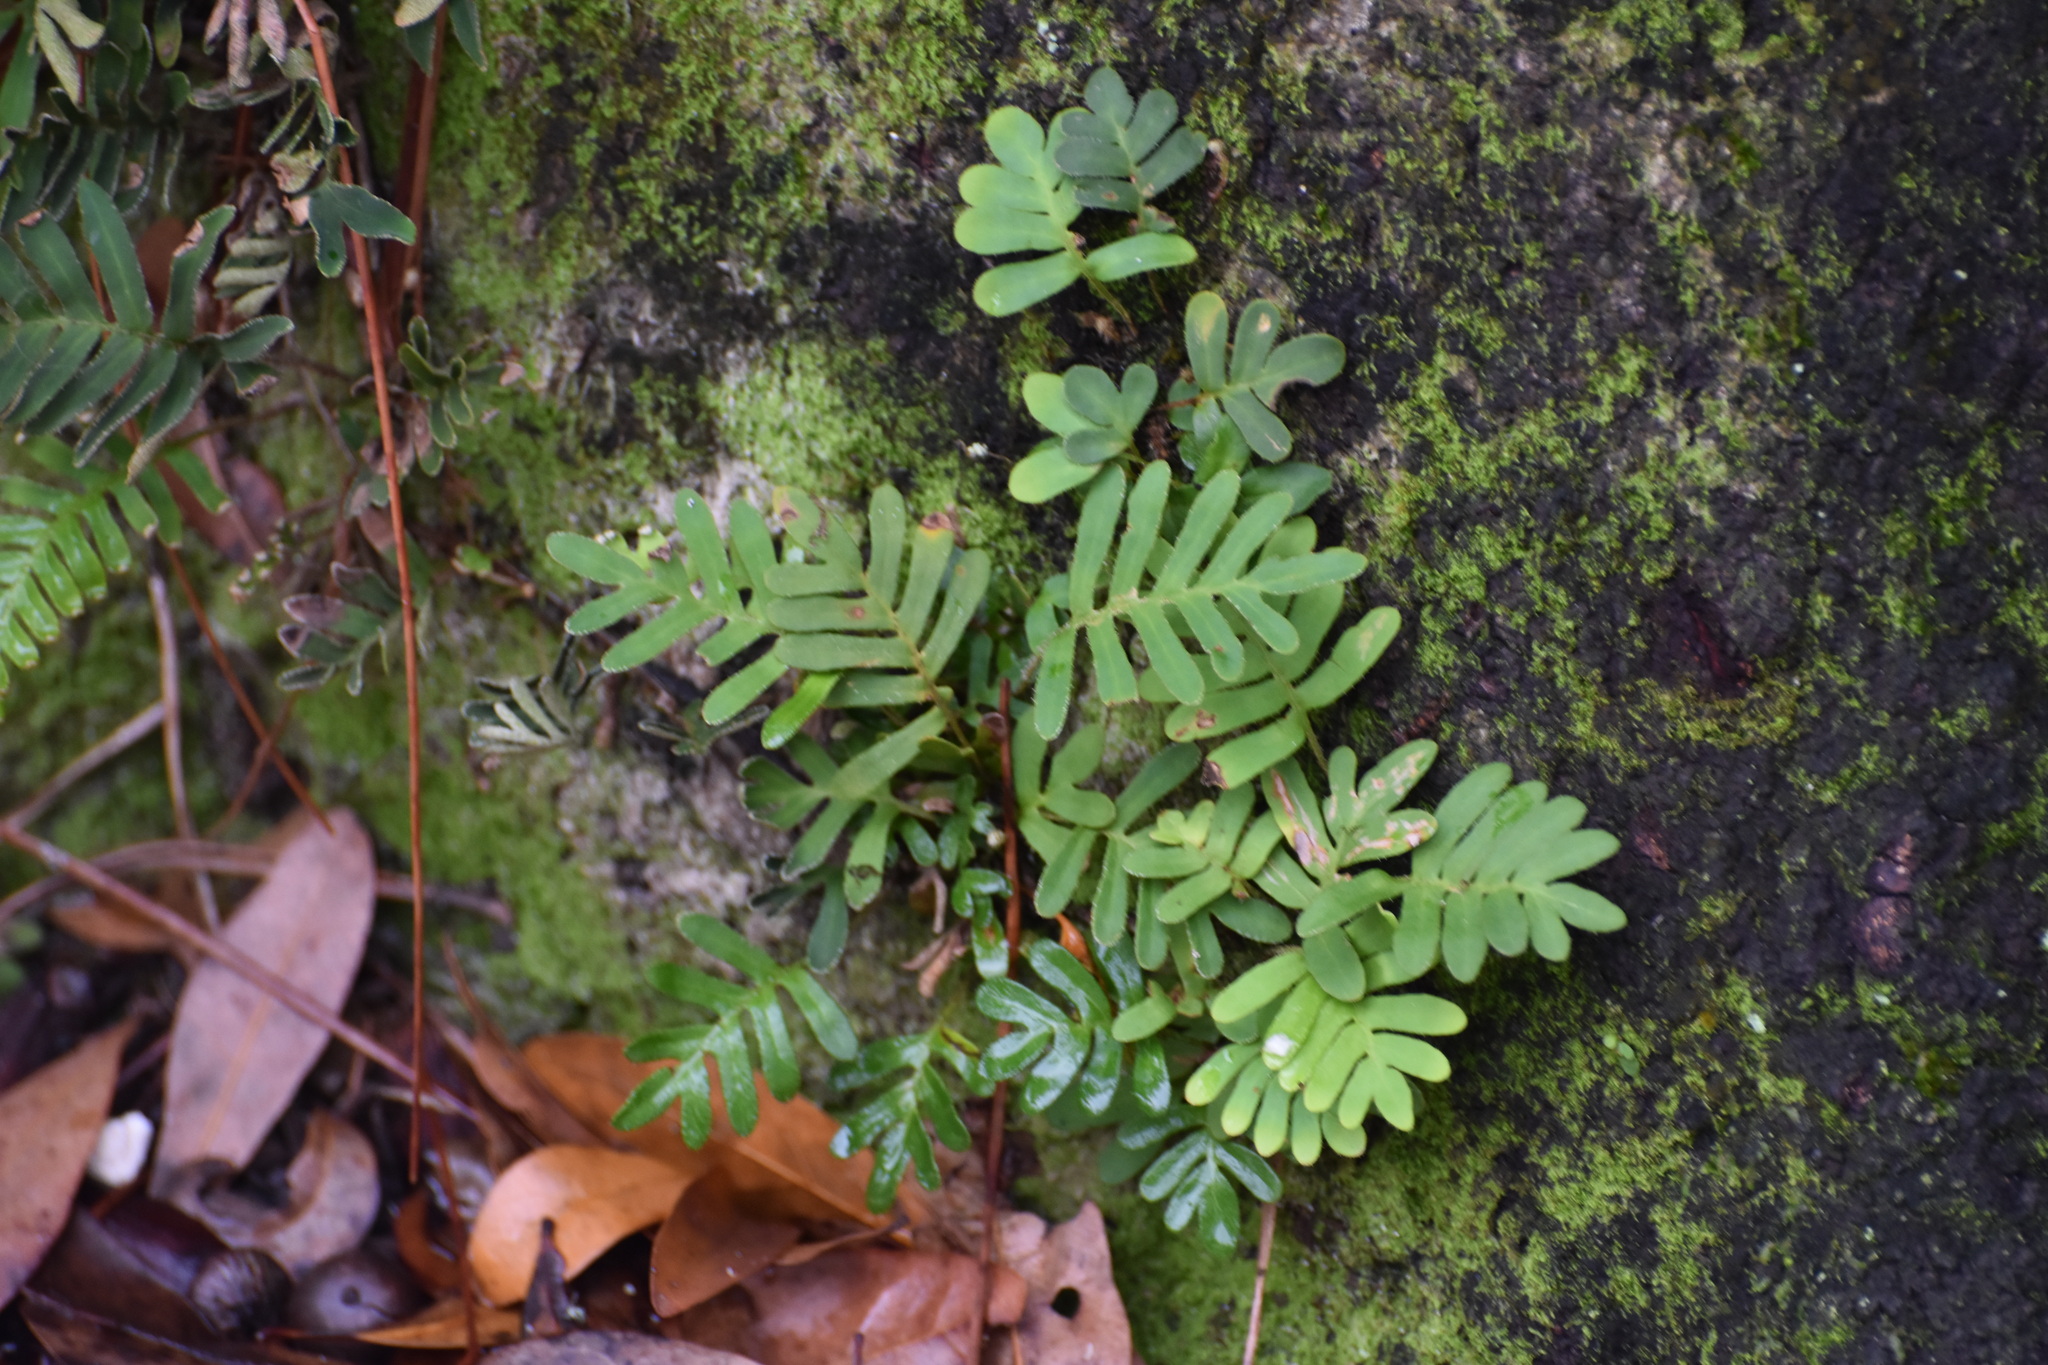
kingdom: Plantae
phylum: Tracheophyta
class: Polypodiopsida
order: Polypodiales
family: Polypodiaceae
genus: Pleopeltis
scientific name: Pleopeltis michauxiana
